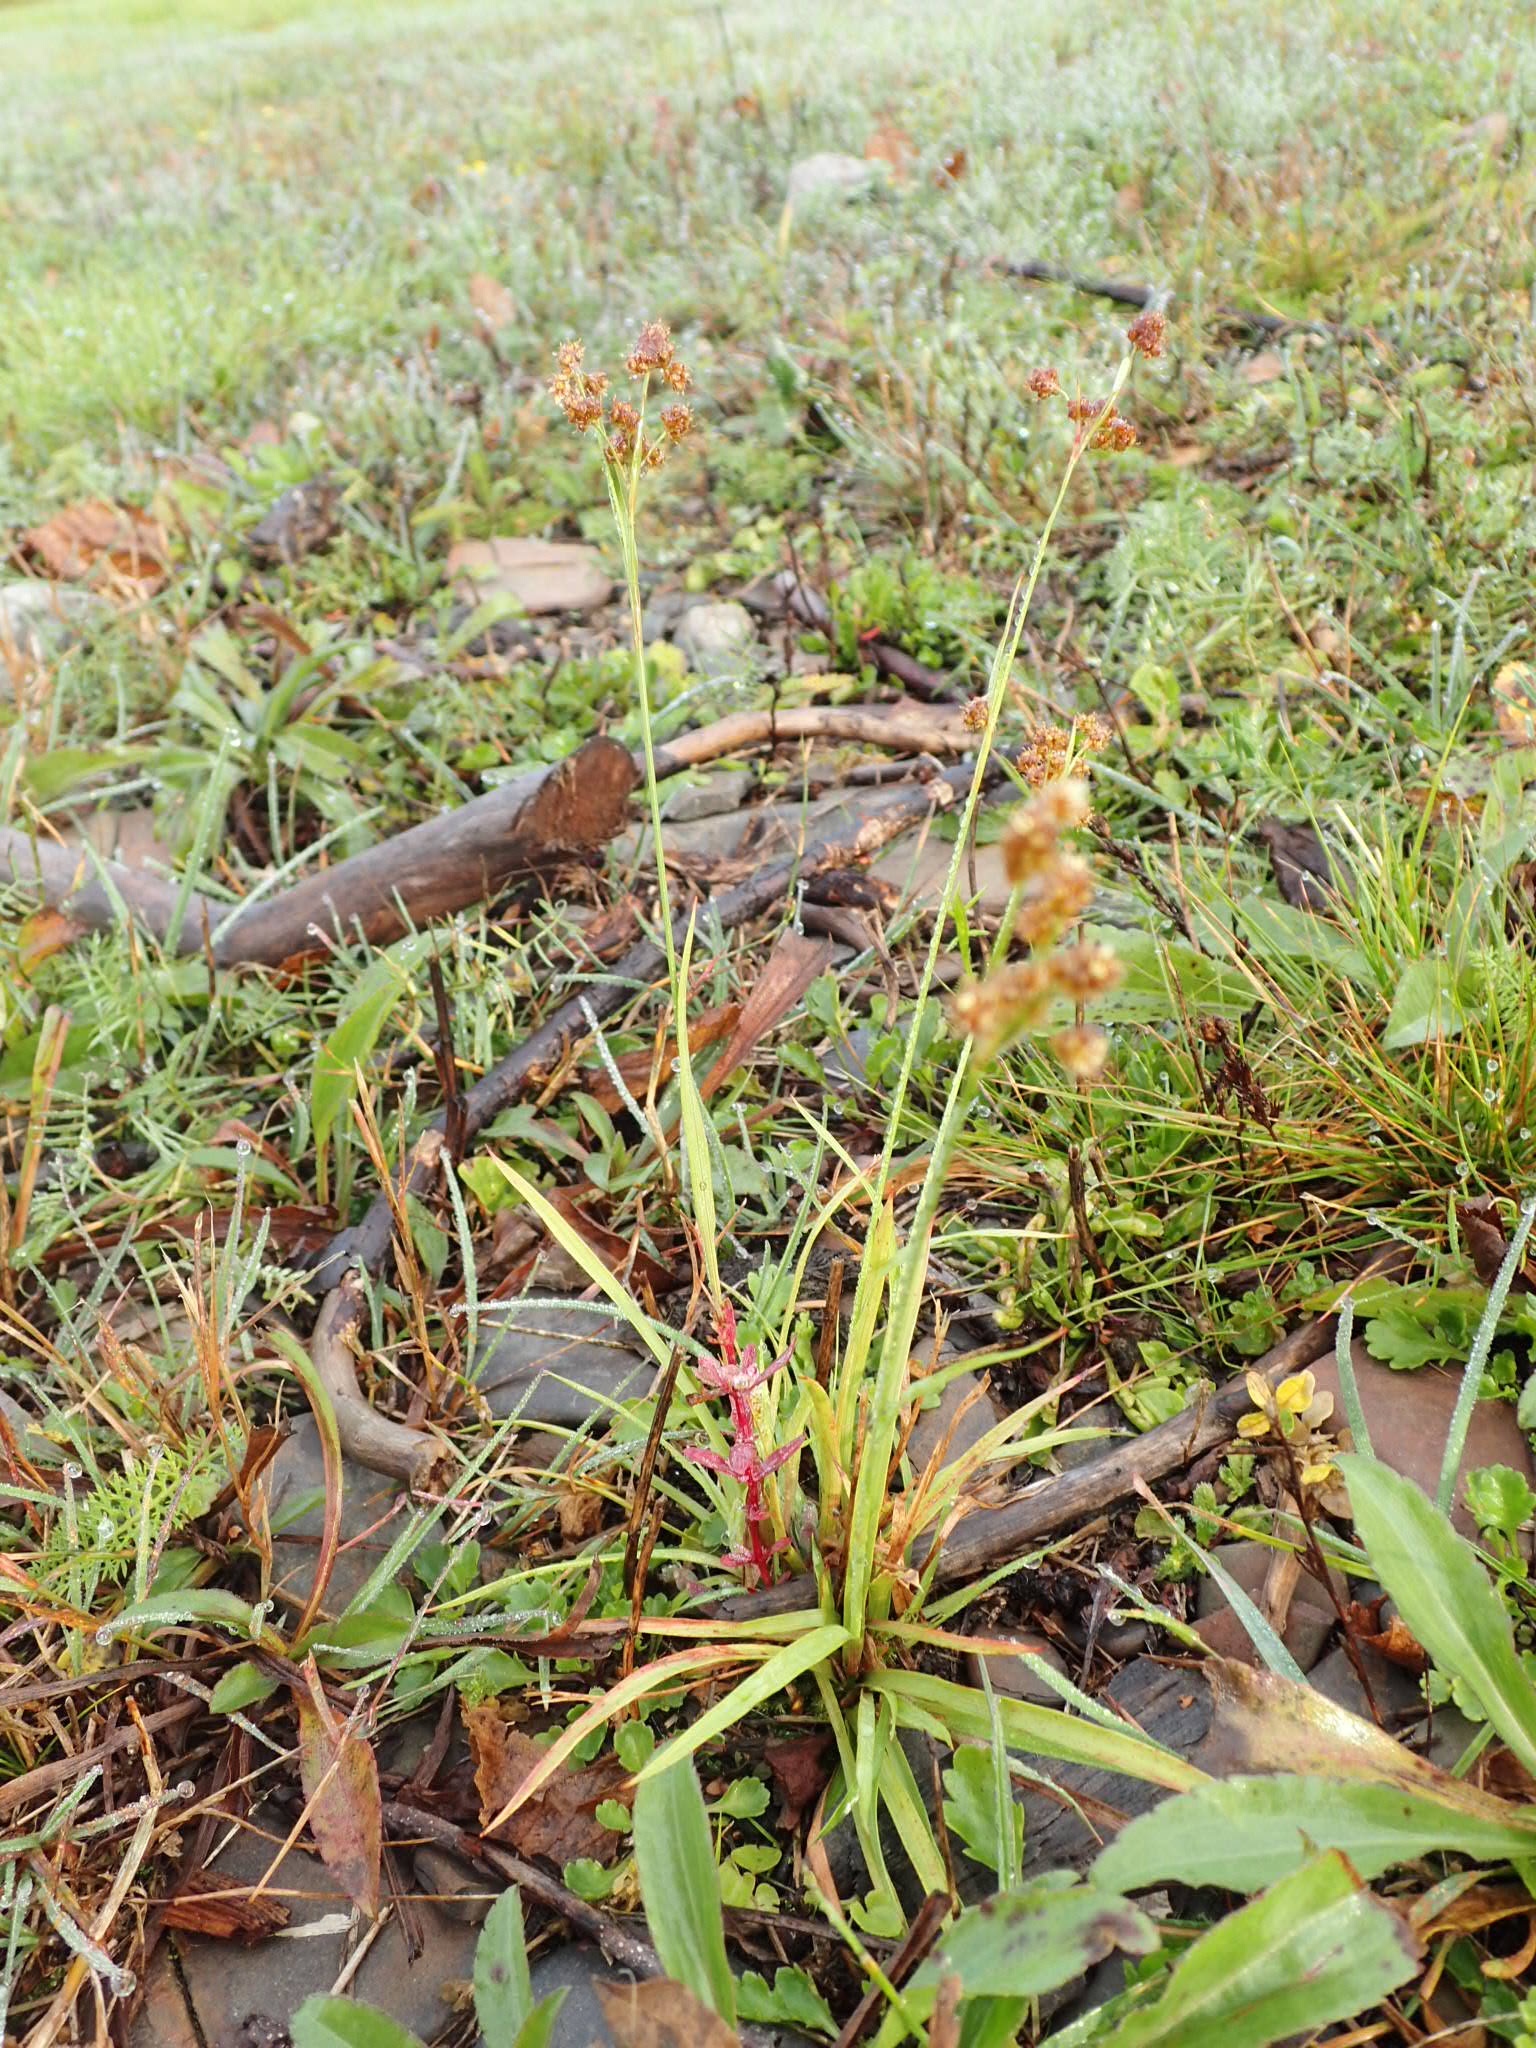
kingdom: Plantae
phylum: Tracheophyta
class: Liliopsida
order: Poales
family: Juncaceae
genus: Luzula
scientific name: Luzula multiflora
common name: Heath wood-rush
